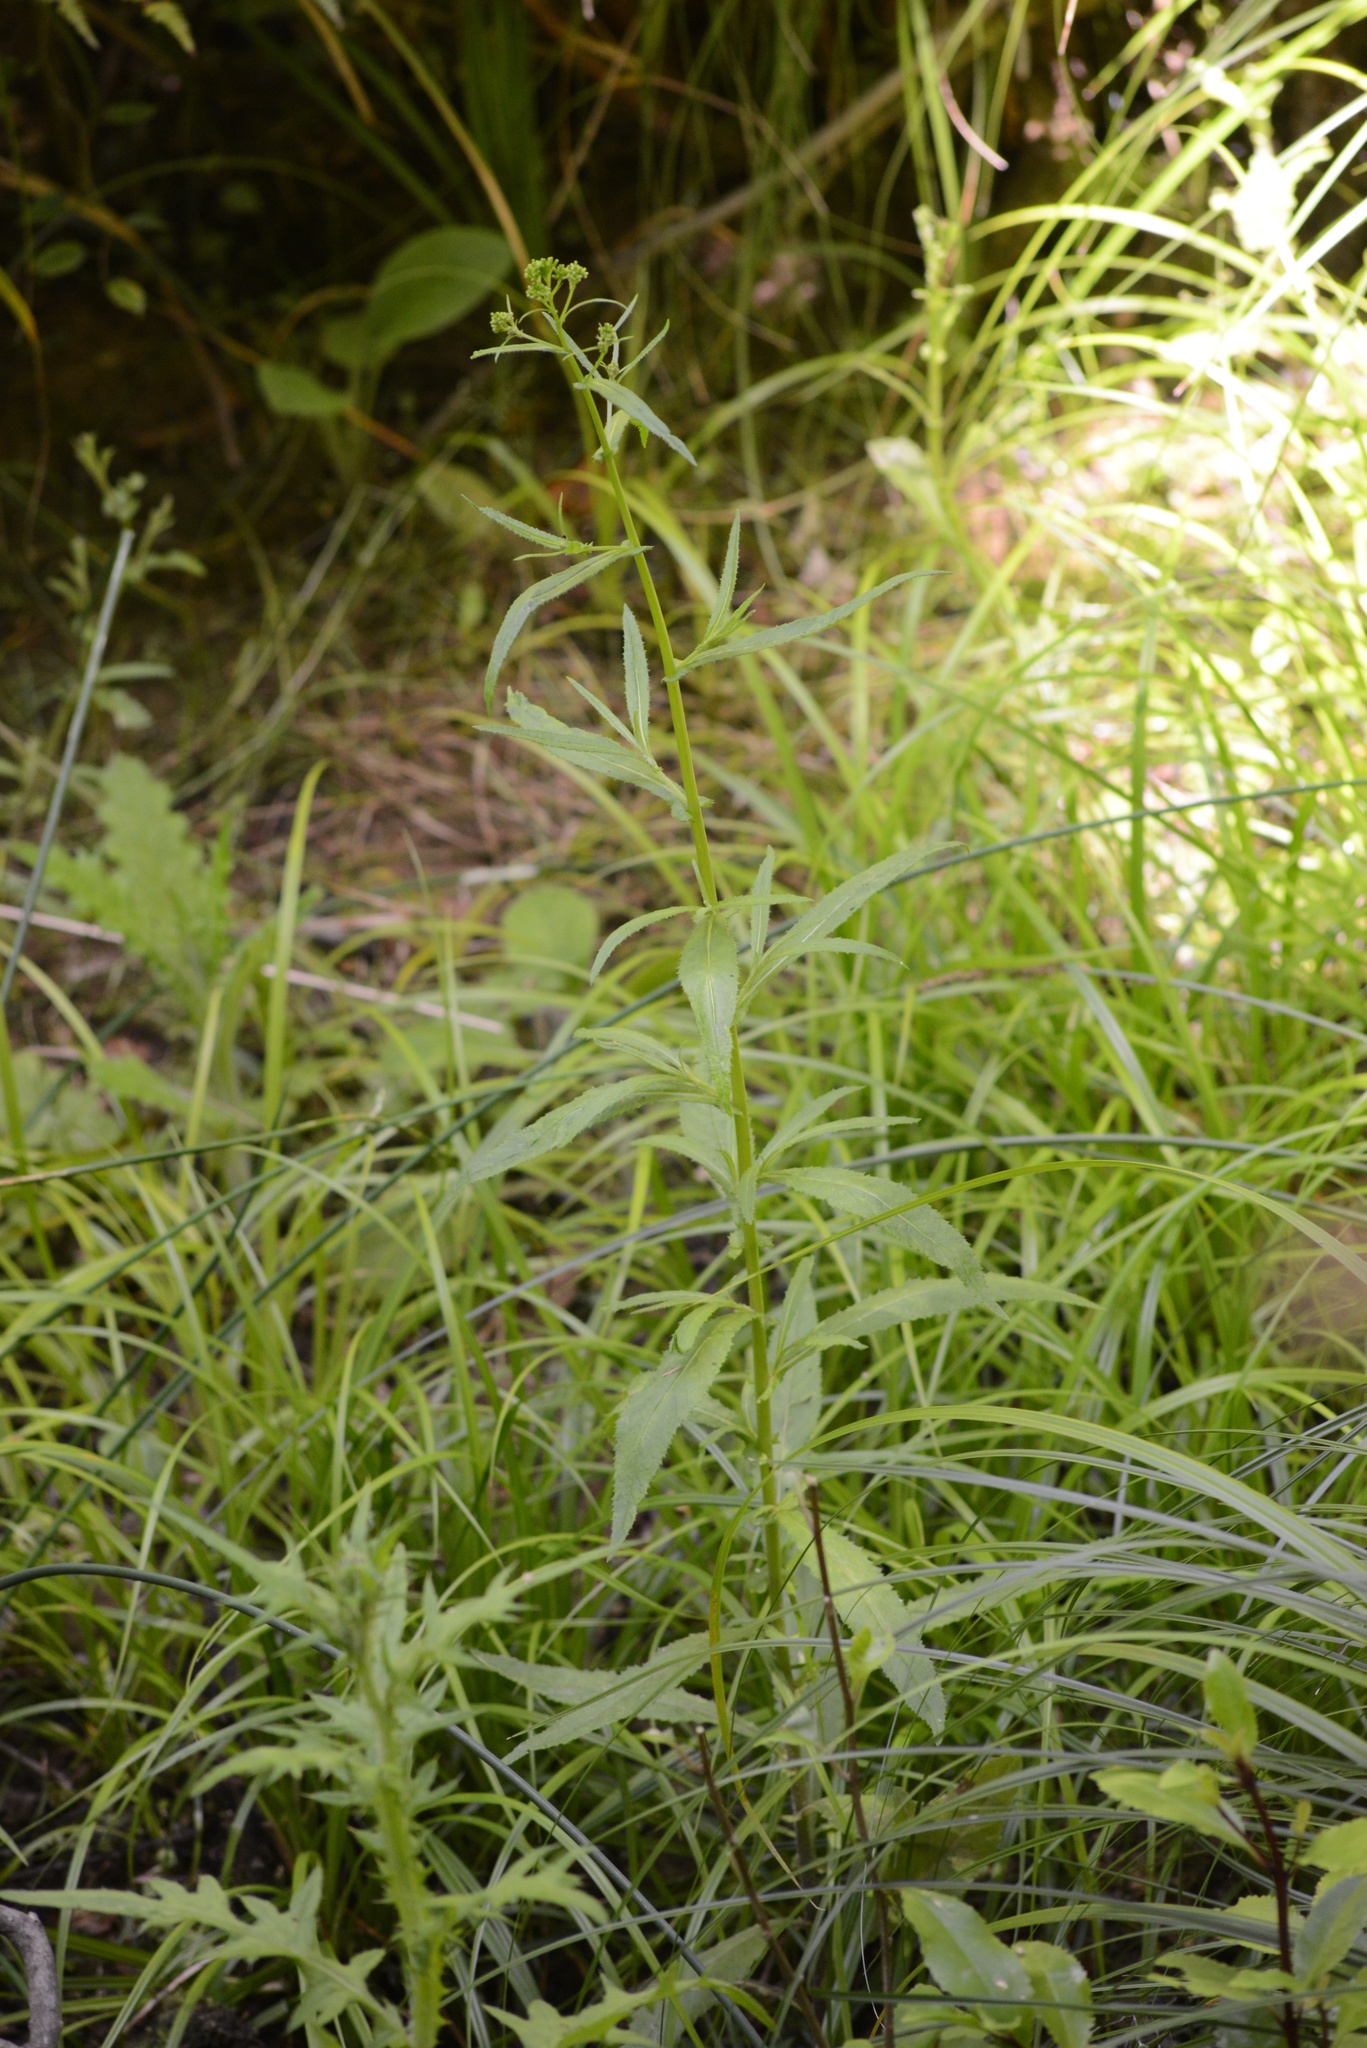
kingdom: Plantae
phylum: Tracheophyta
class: Magnoliopsida
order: Asterales
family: Asteraceae
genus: Senecio
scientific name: Senecio minimus
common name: Toothed fireweed
